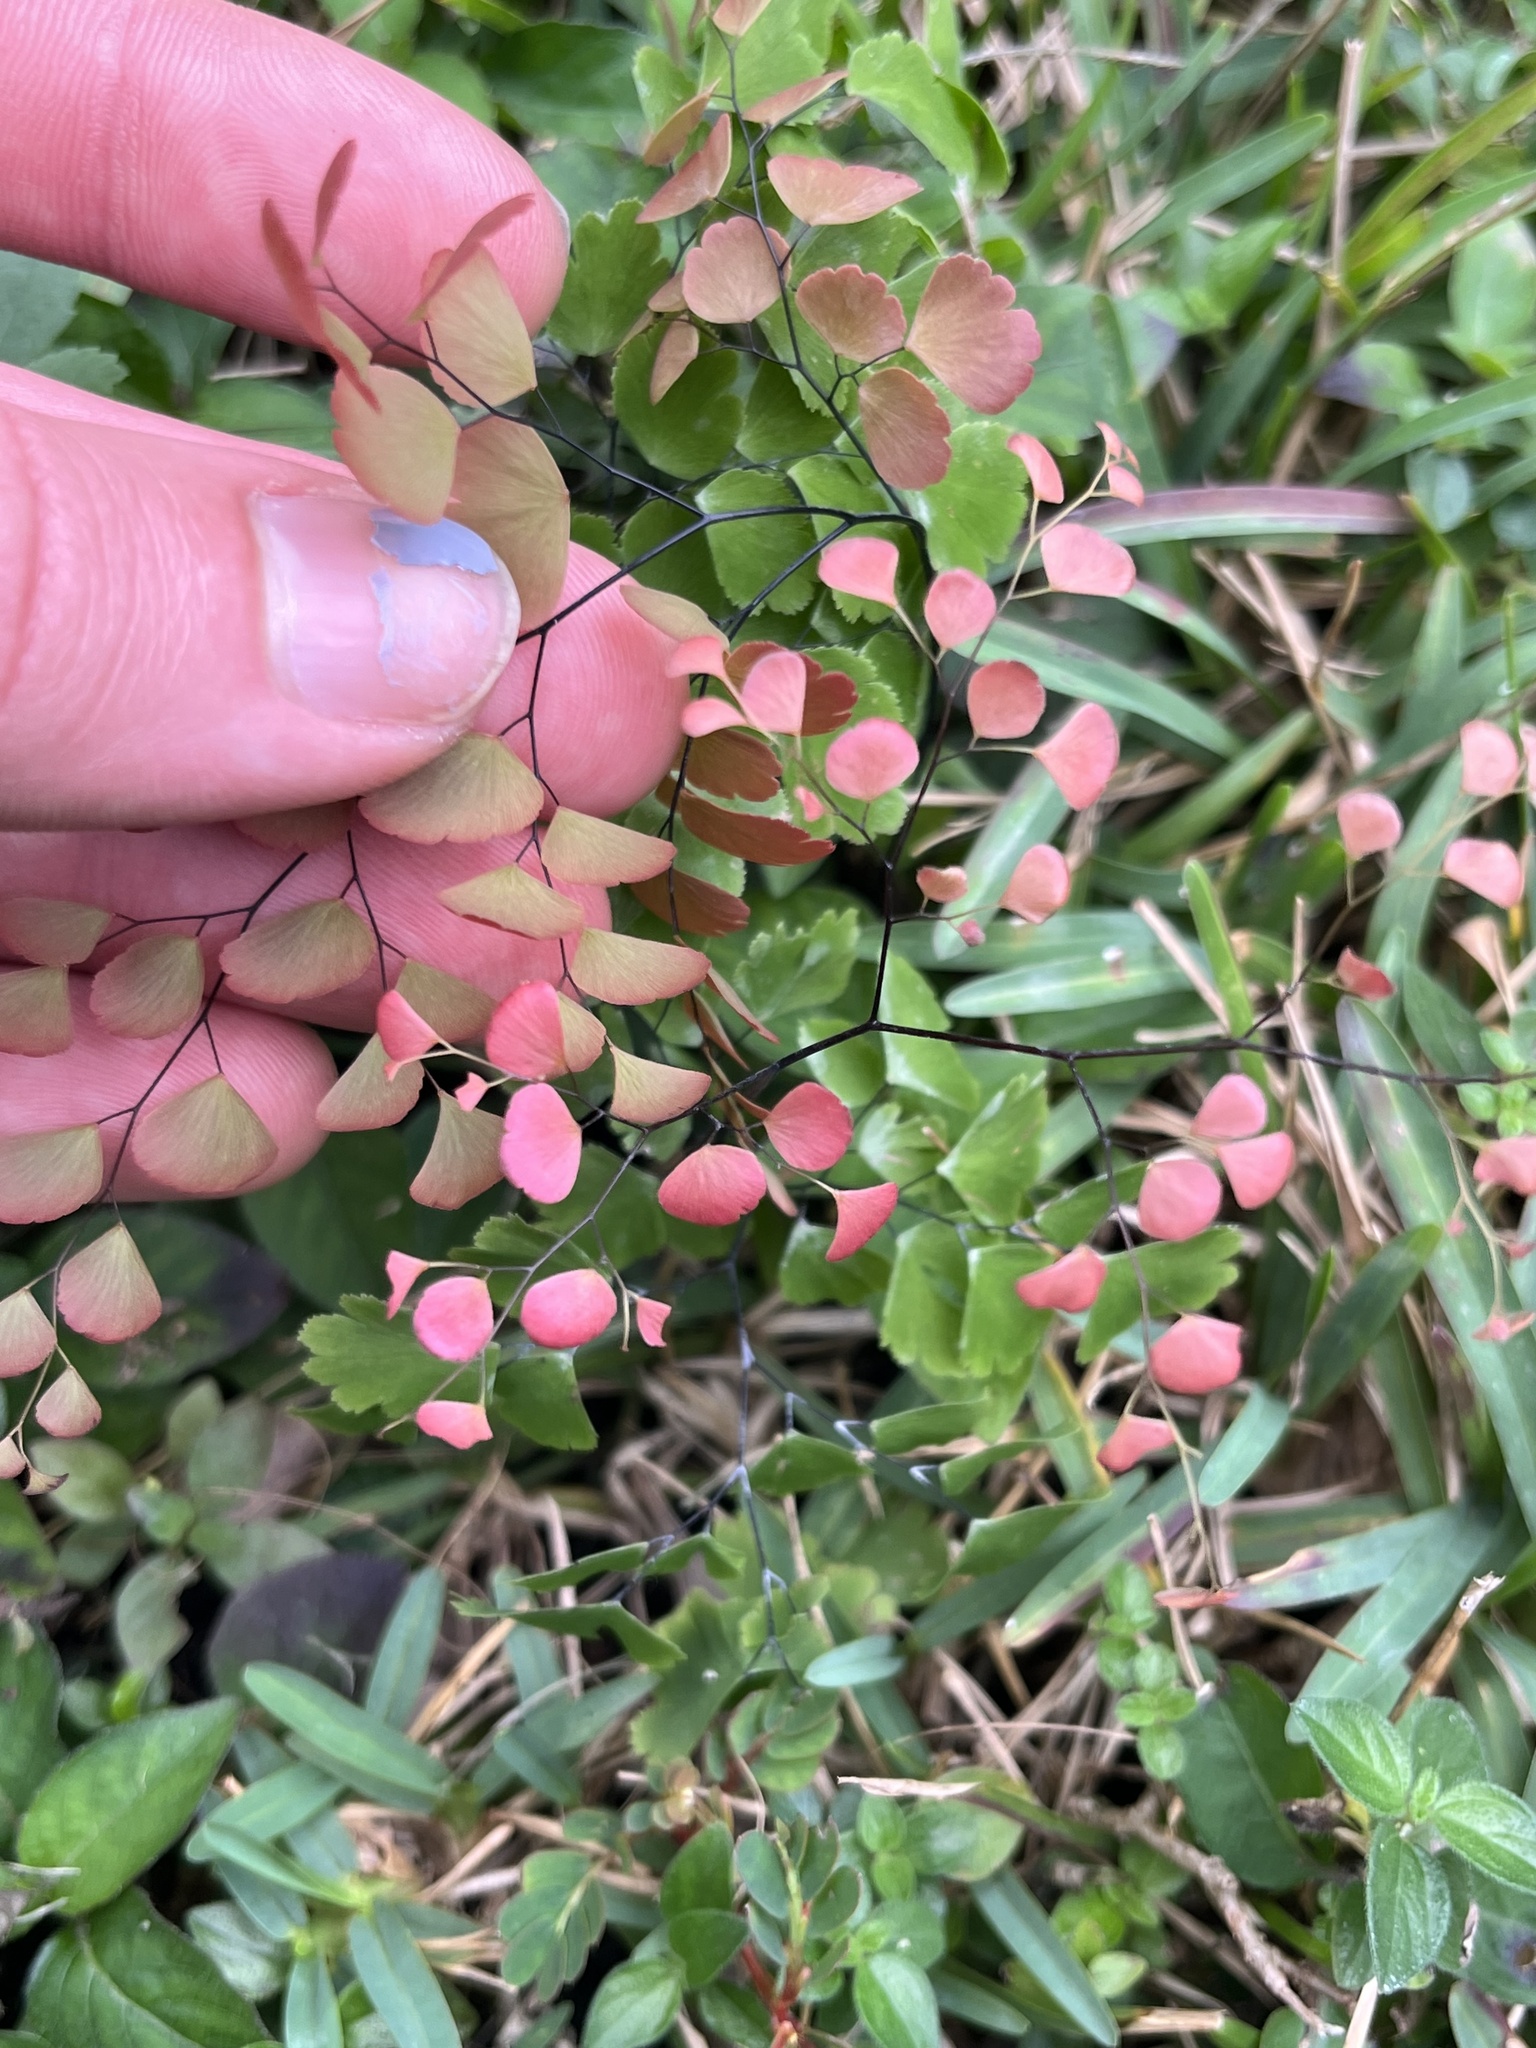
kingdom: Plantae
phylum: Tracheophyta
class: Polypodiopsida
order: Polypodiales
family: Pteridaceae
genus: Adiantum
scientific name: Adiantum tenerum
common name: Fan maidenhair
